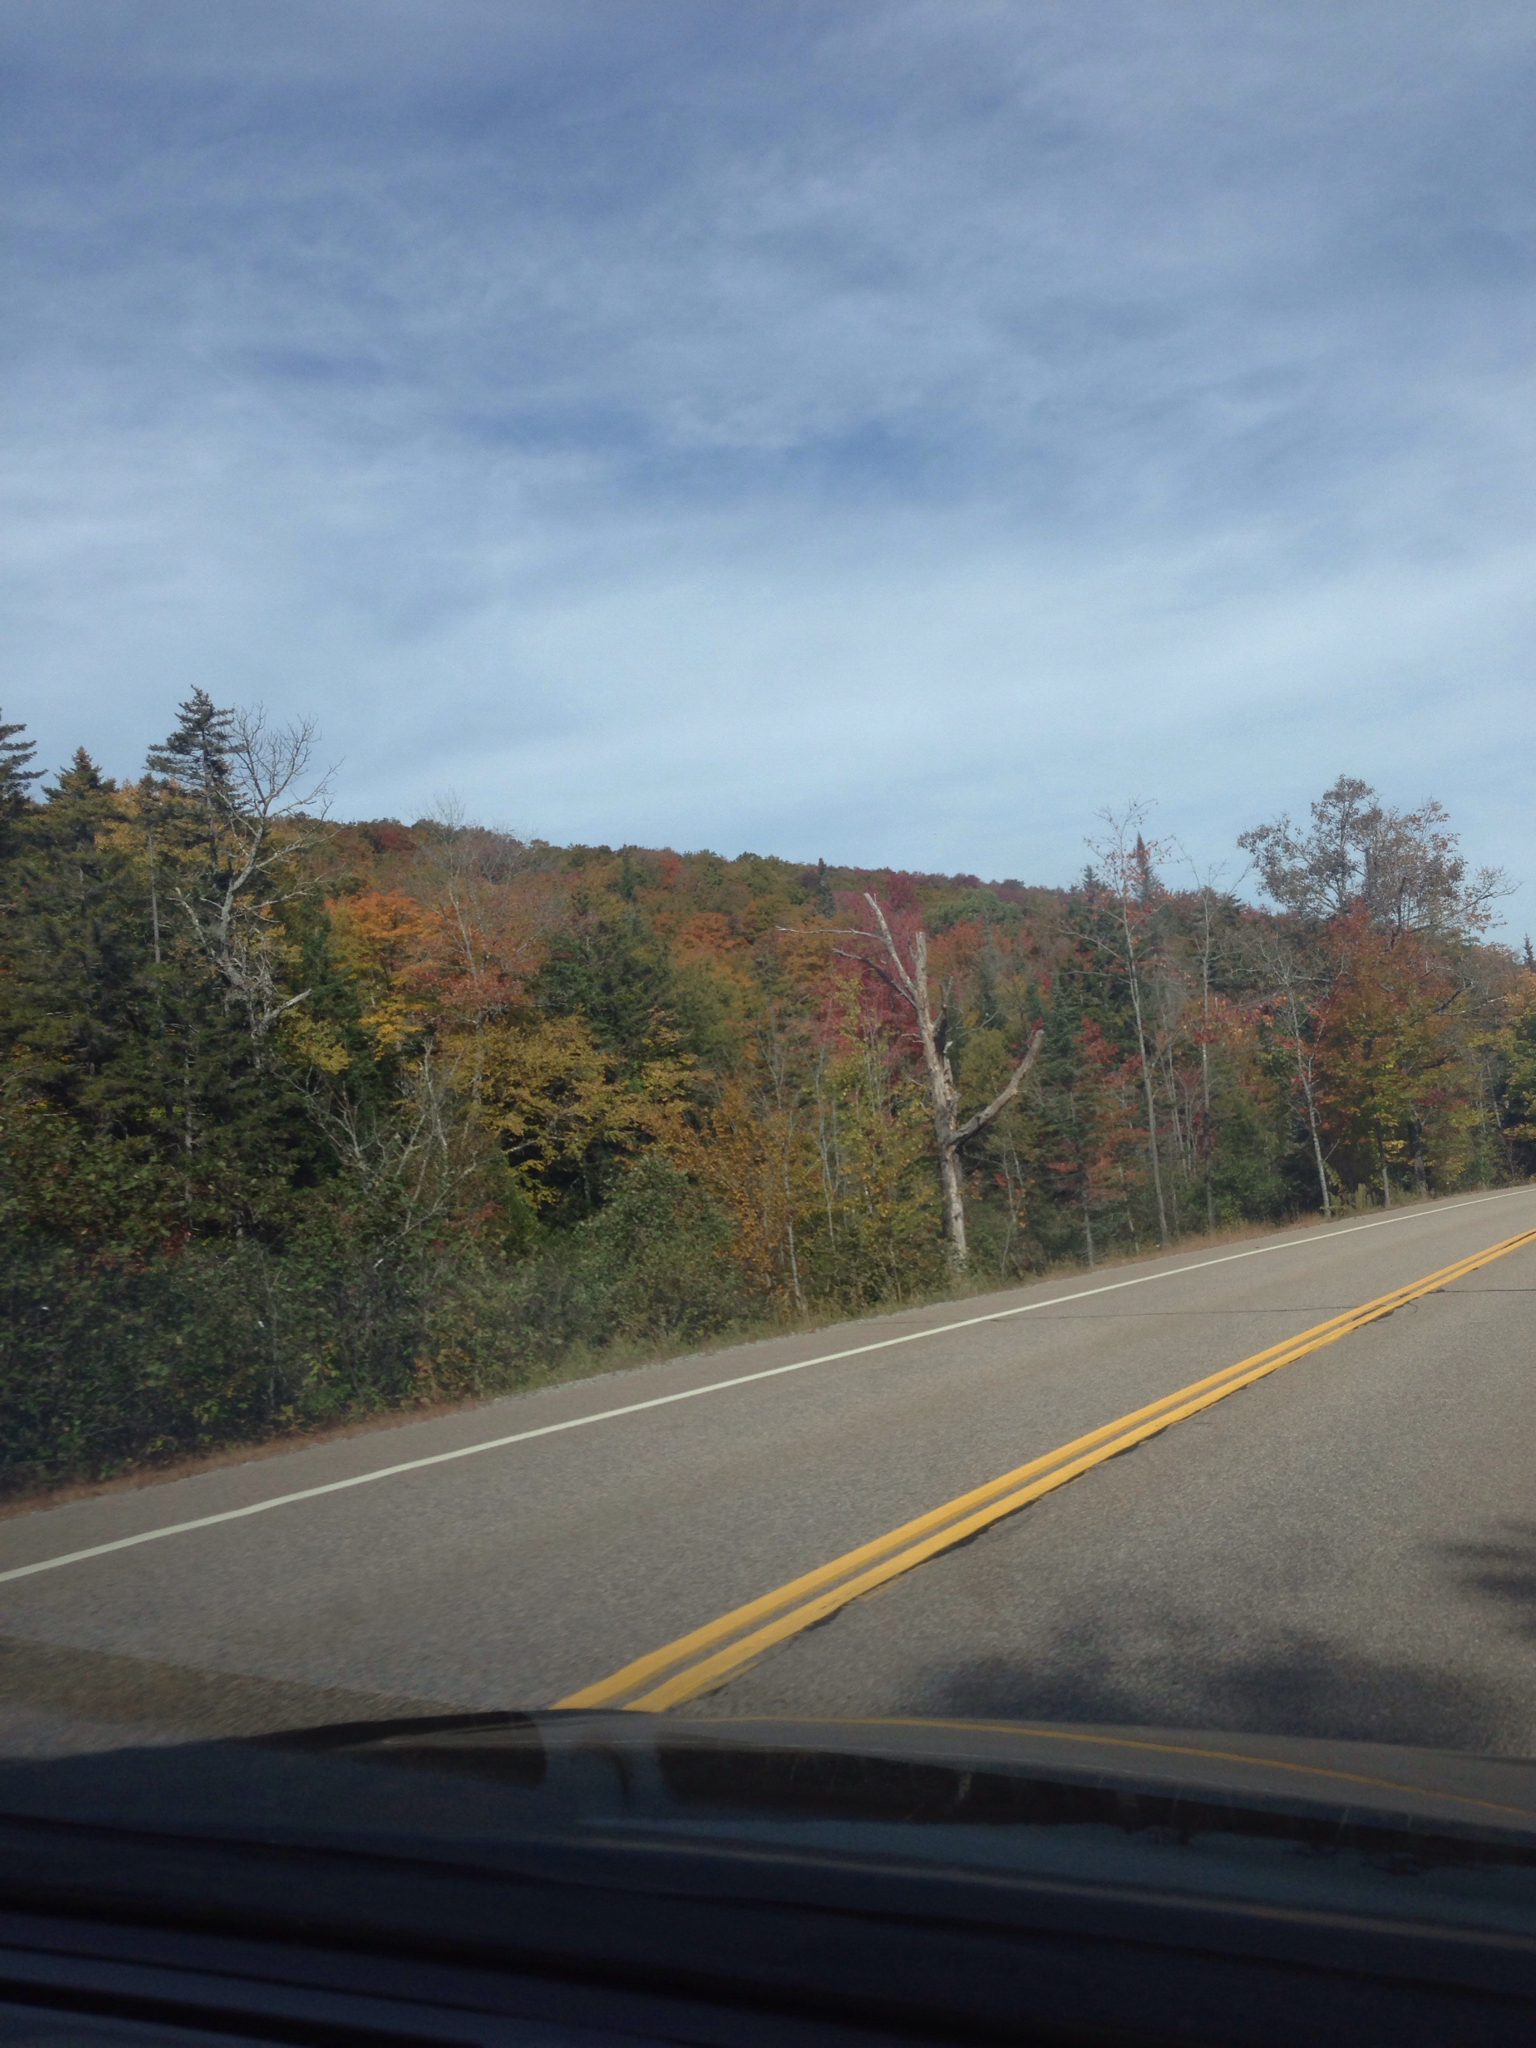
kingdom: Plantae
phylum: Tracheophyta
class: Pinopsida
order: Pinales
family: Pinaceae
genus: Picea
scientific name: Picea rubens
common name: Red spruce
